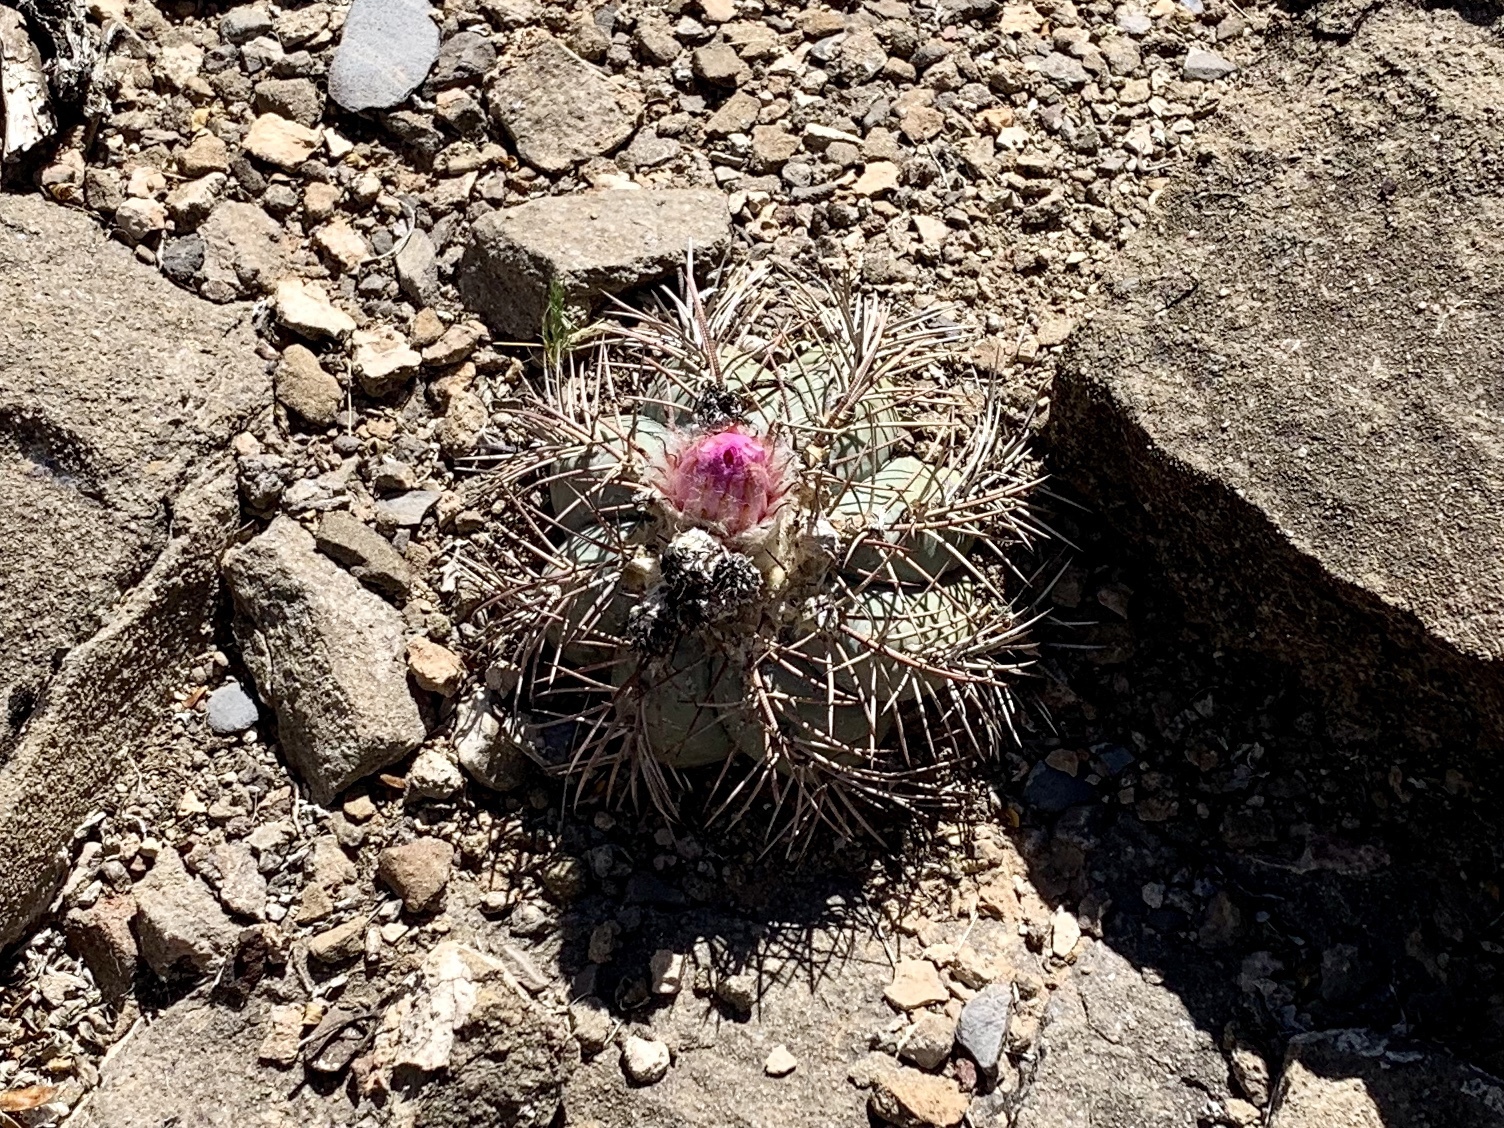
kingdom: Plantae
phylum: Tracheophyta
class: Magnoliopsida
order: Caryophyllales
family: Cactaceae
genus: Echinocactus
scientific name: Echinocactus horizonthalonius
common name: Devilshead
